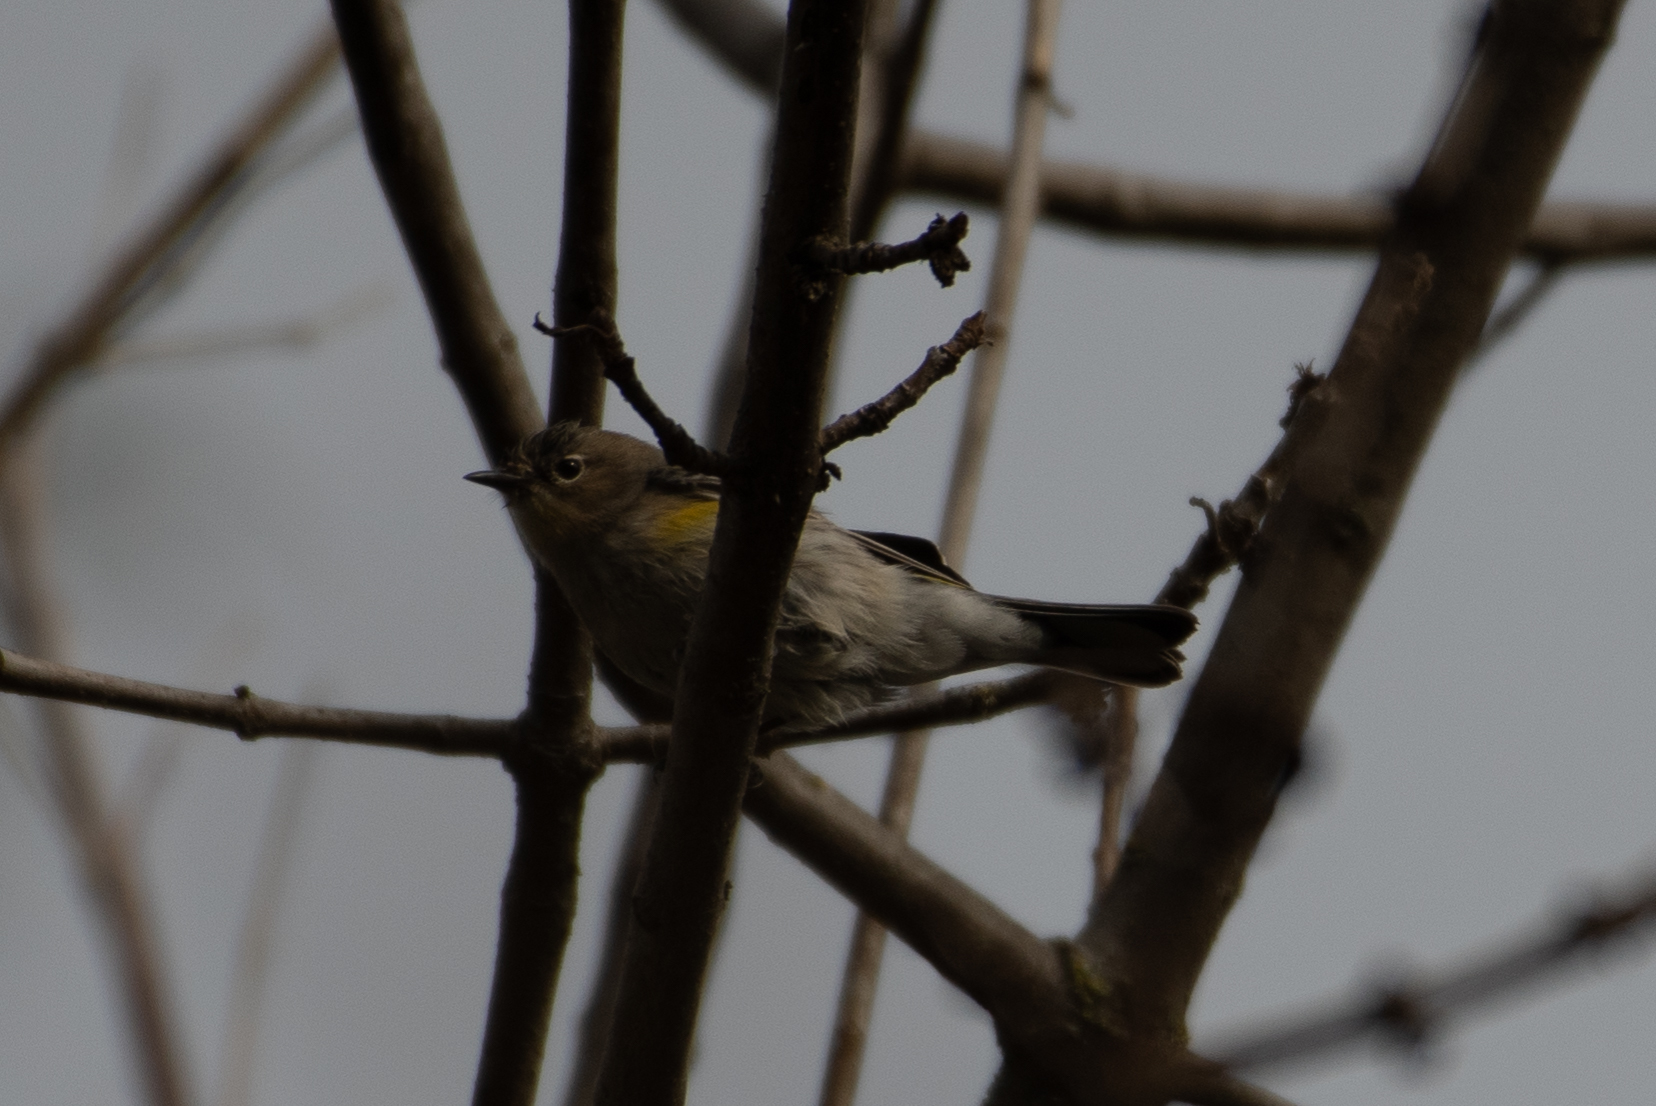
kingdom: Animalia
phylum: Chordata
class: Aves
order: Passeriformes
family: Parulidae
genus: Setophaga
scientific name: Setophaga coronata
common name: Myrtle warbler
